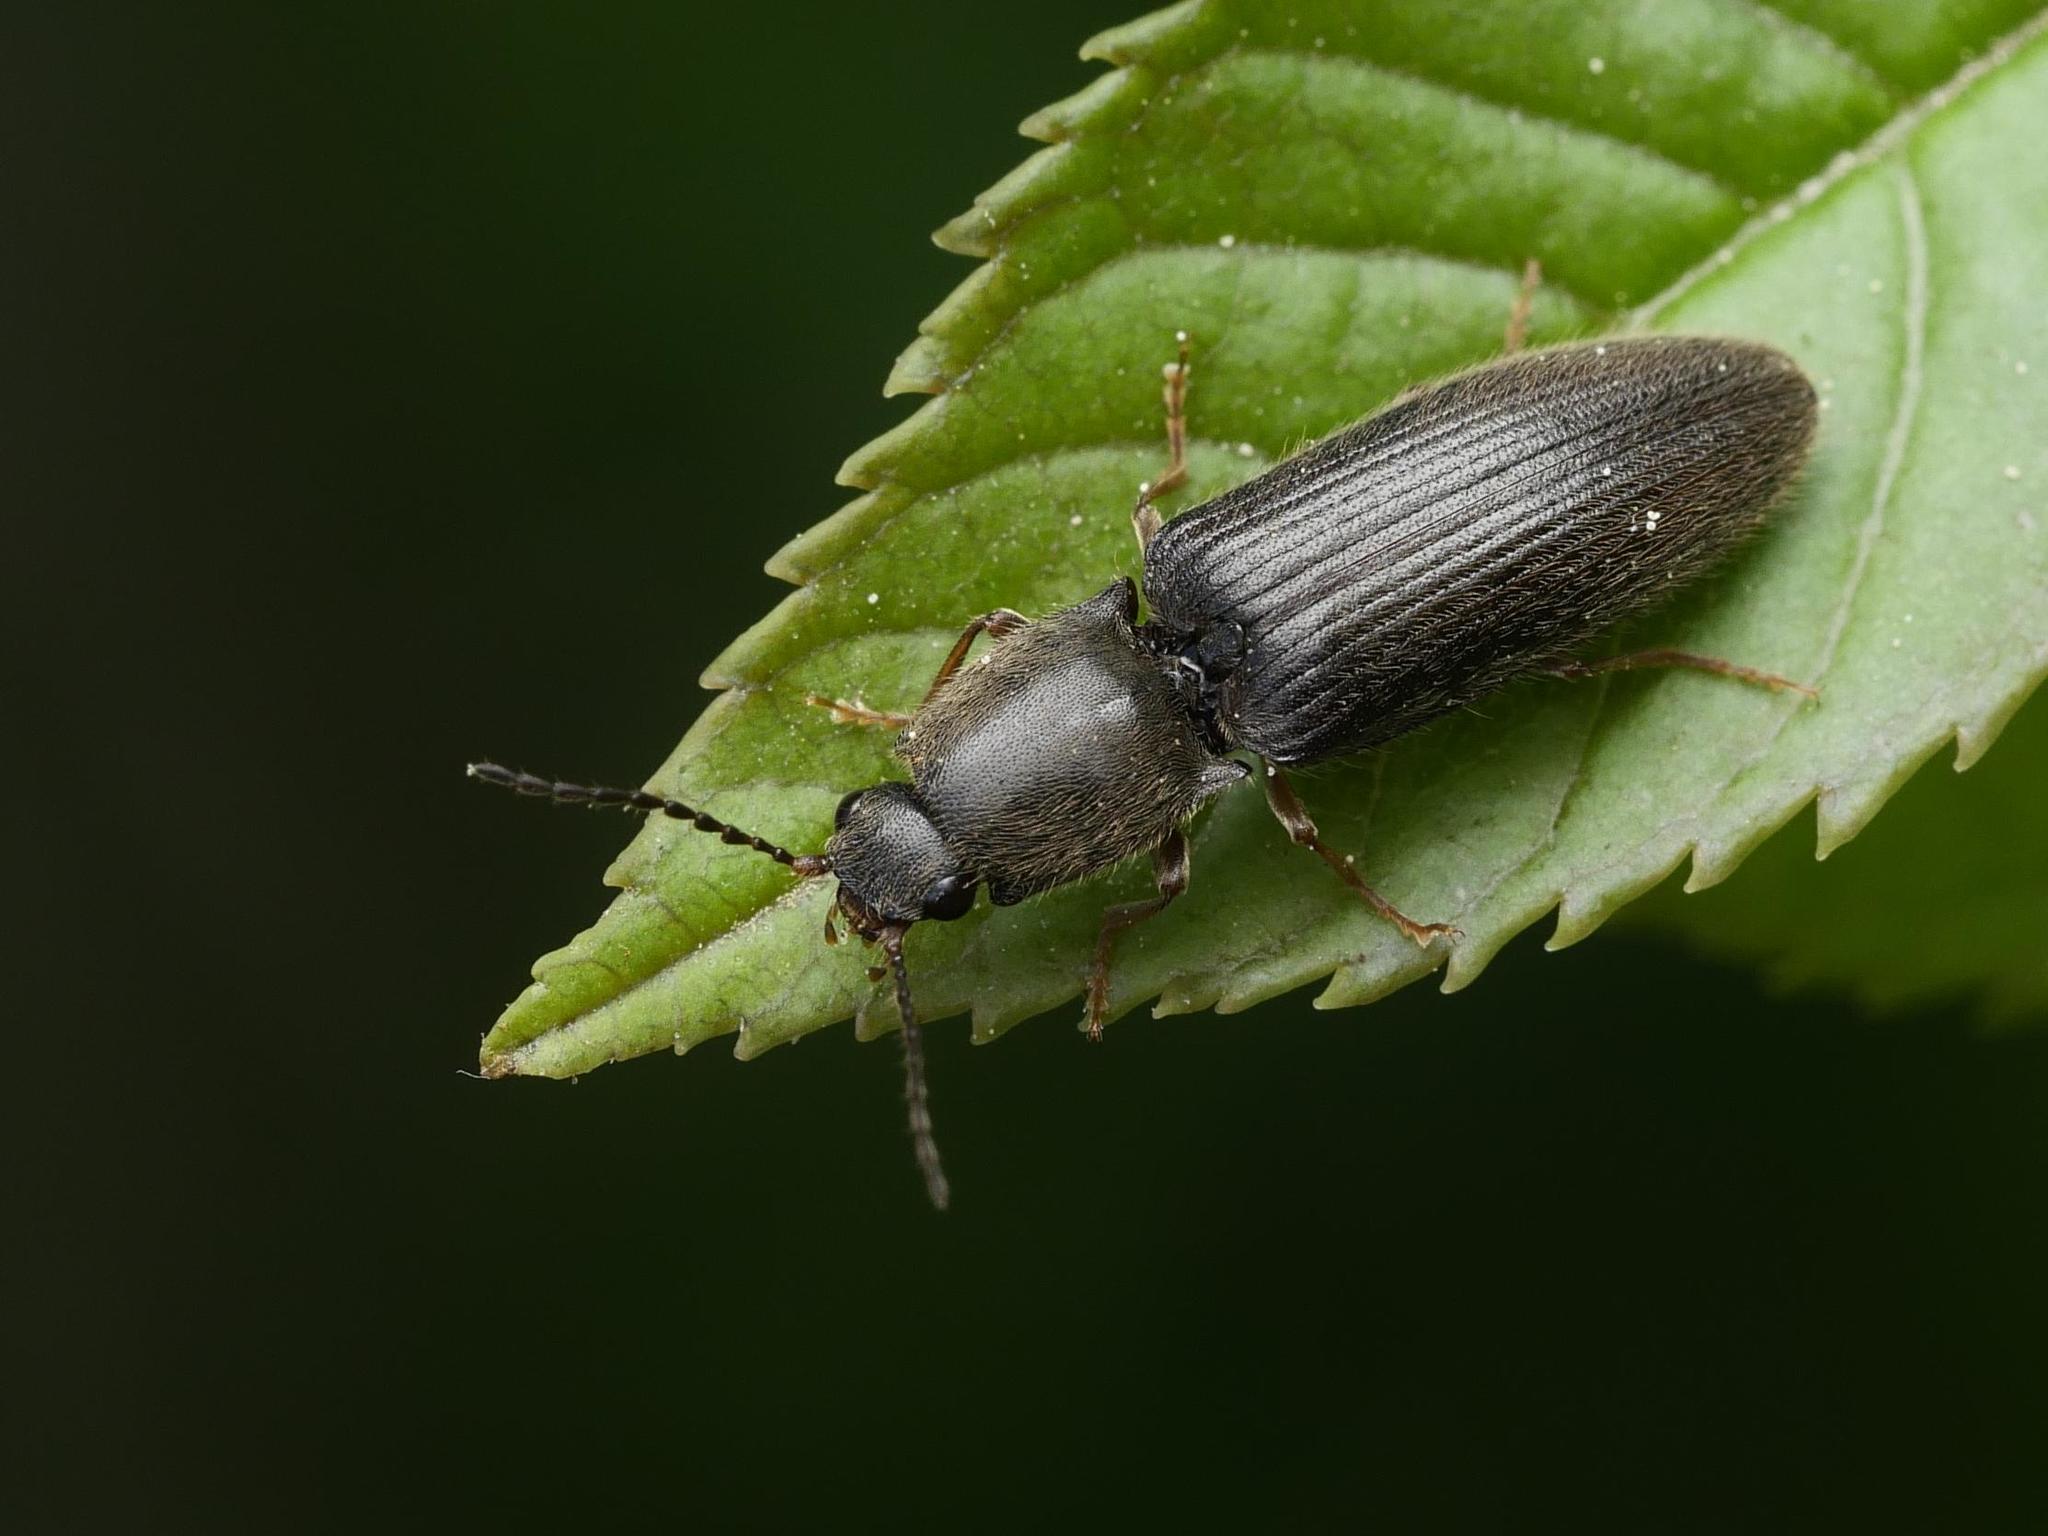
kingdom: Animalia
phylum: Arthropoda
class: Insecta
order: Coleoptera
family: Elateridae
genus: Athous
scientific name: Athous haemorrhoidalis
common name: Red-brown click beetle
